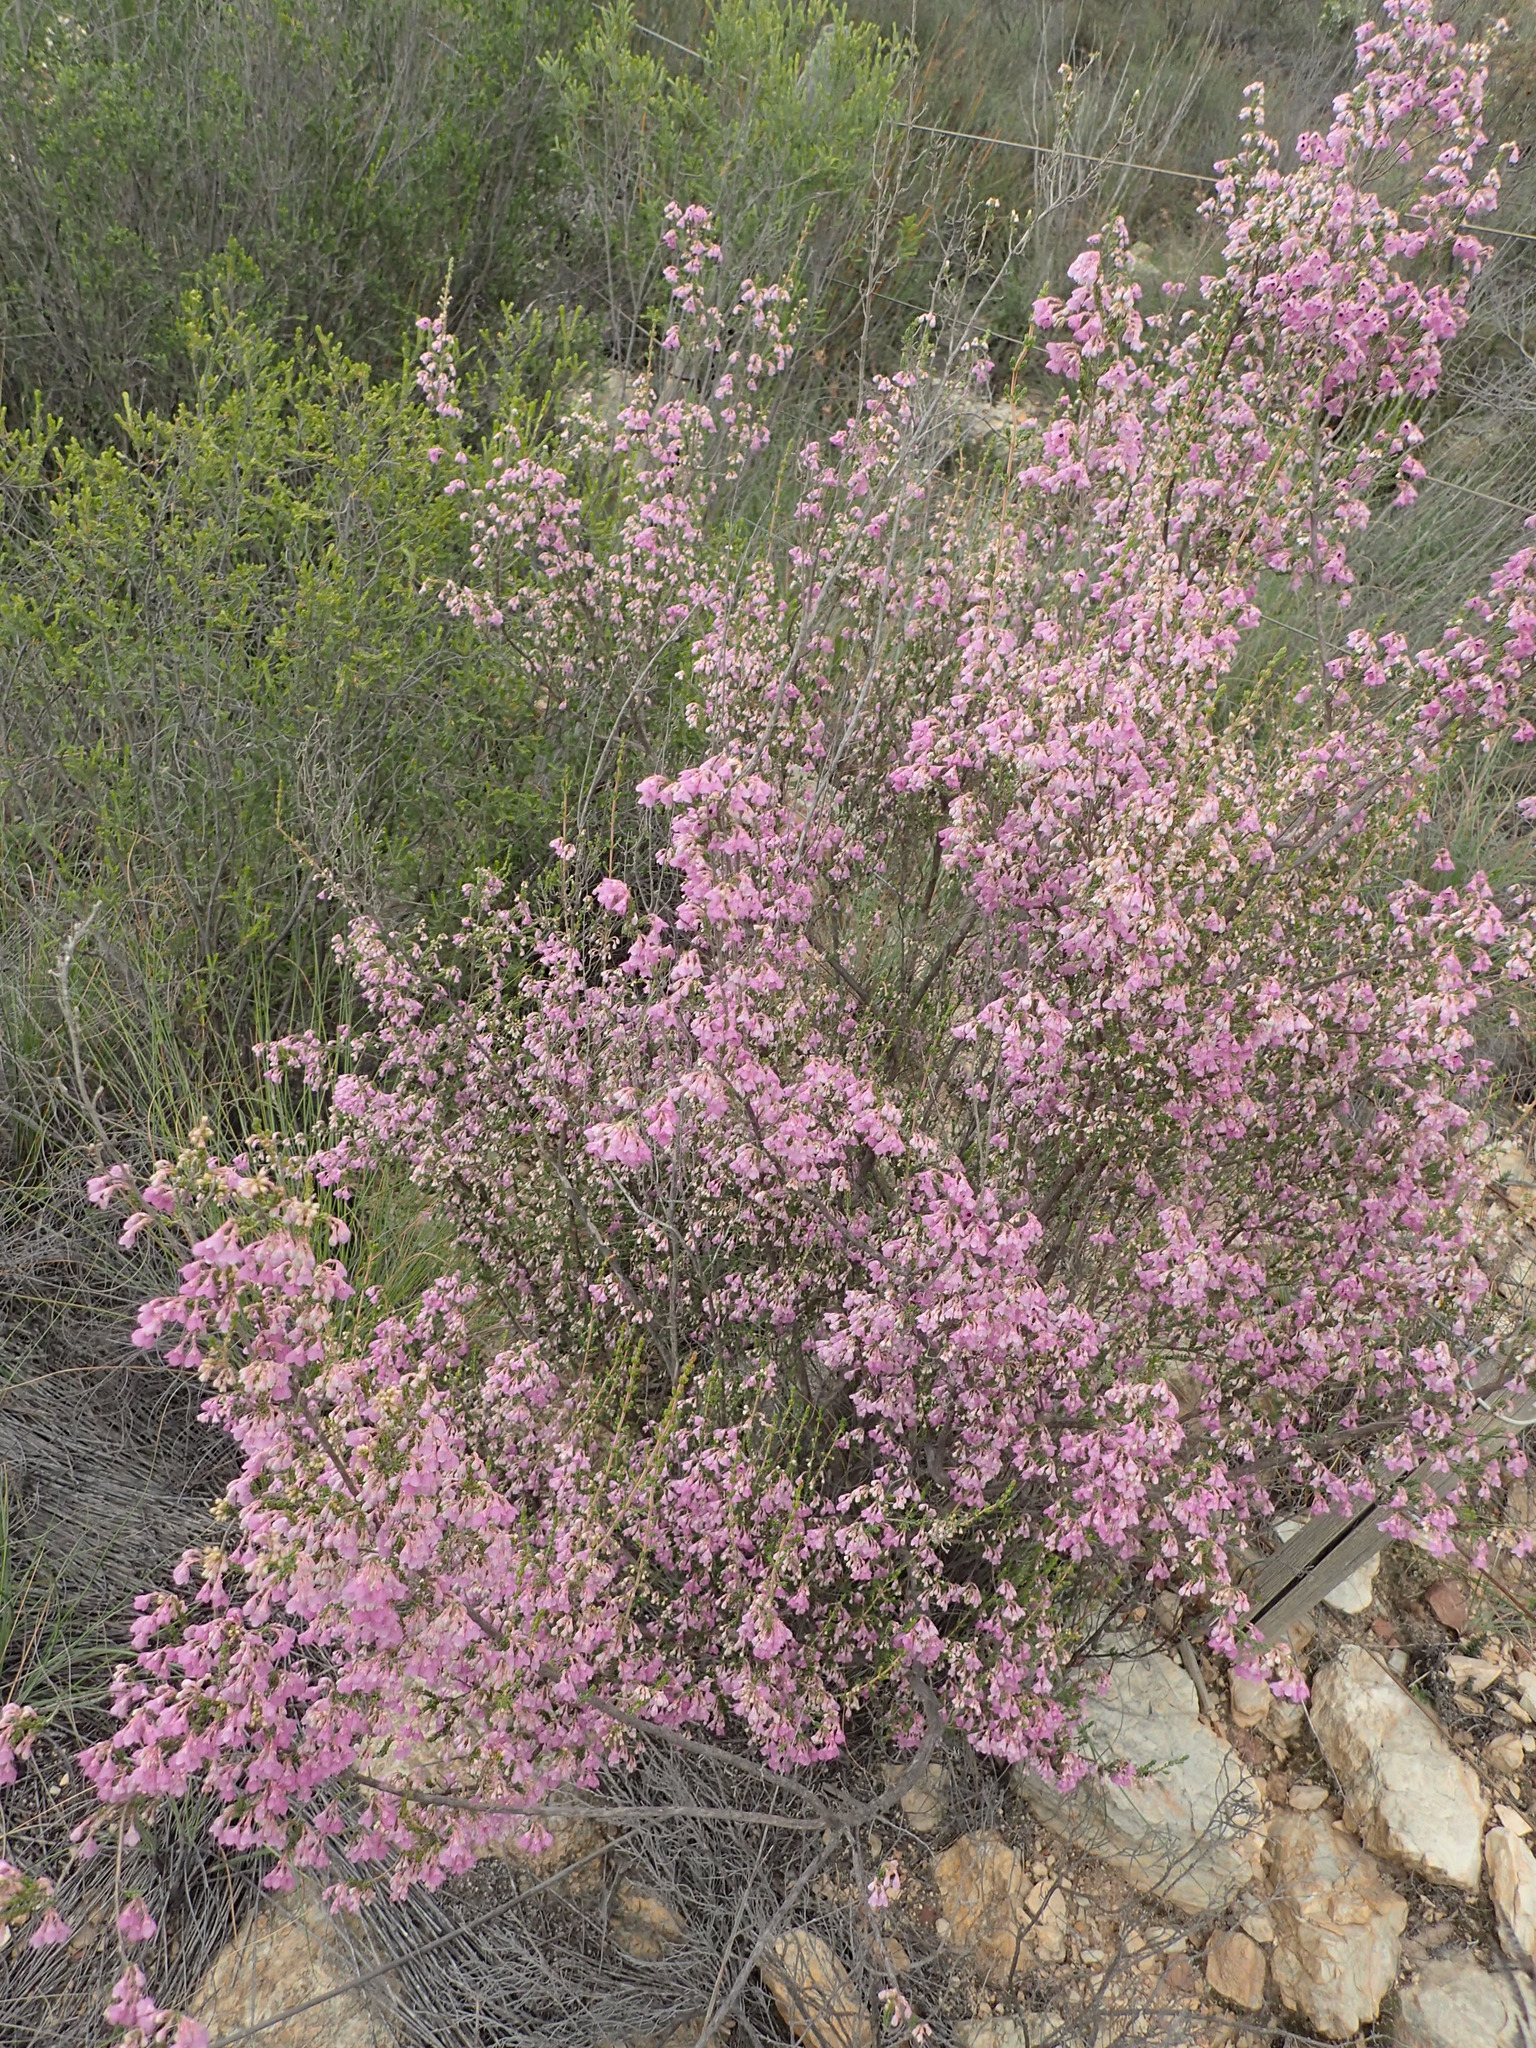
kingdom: Plantae
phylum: Tracheophyta
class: Magnoliopsida
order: Ericales
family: Ericaceae
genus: Erica
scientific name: Erica canaliculata
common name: Hairy grey heather
